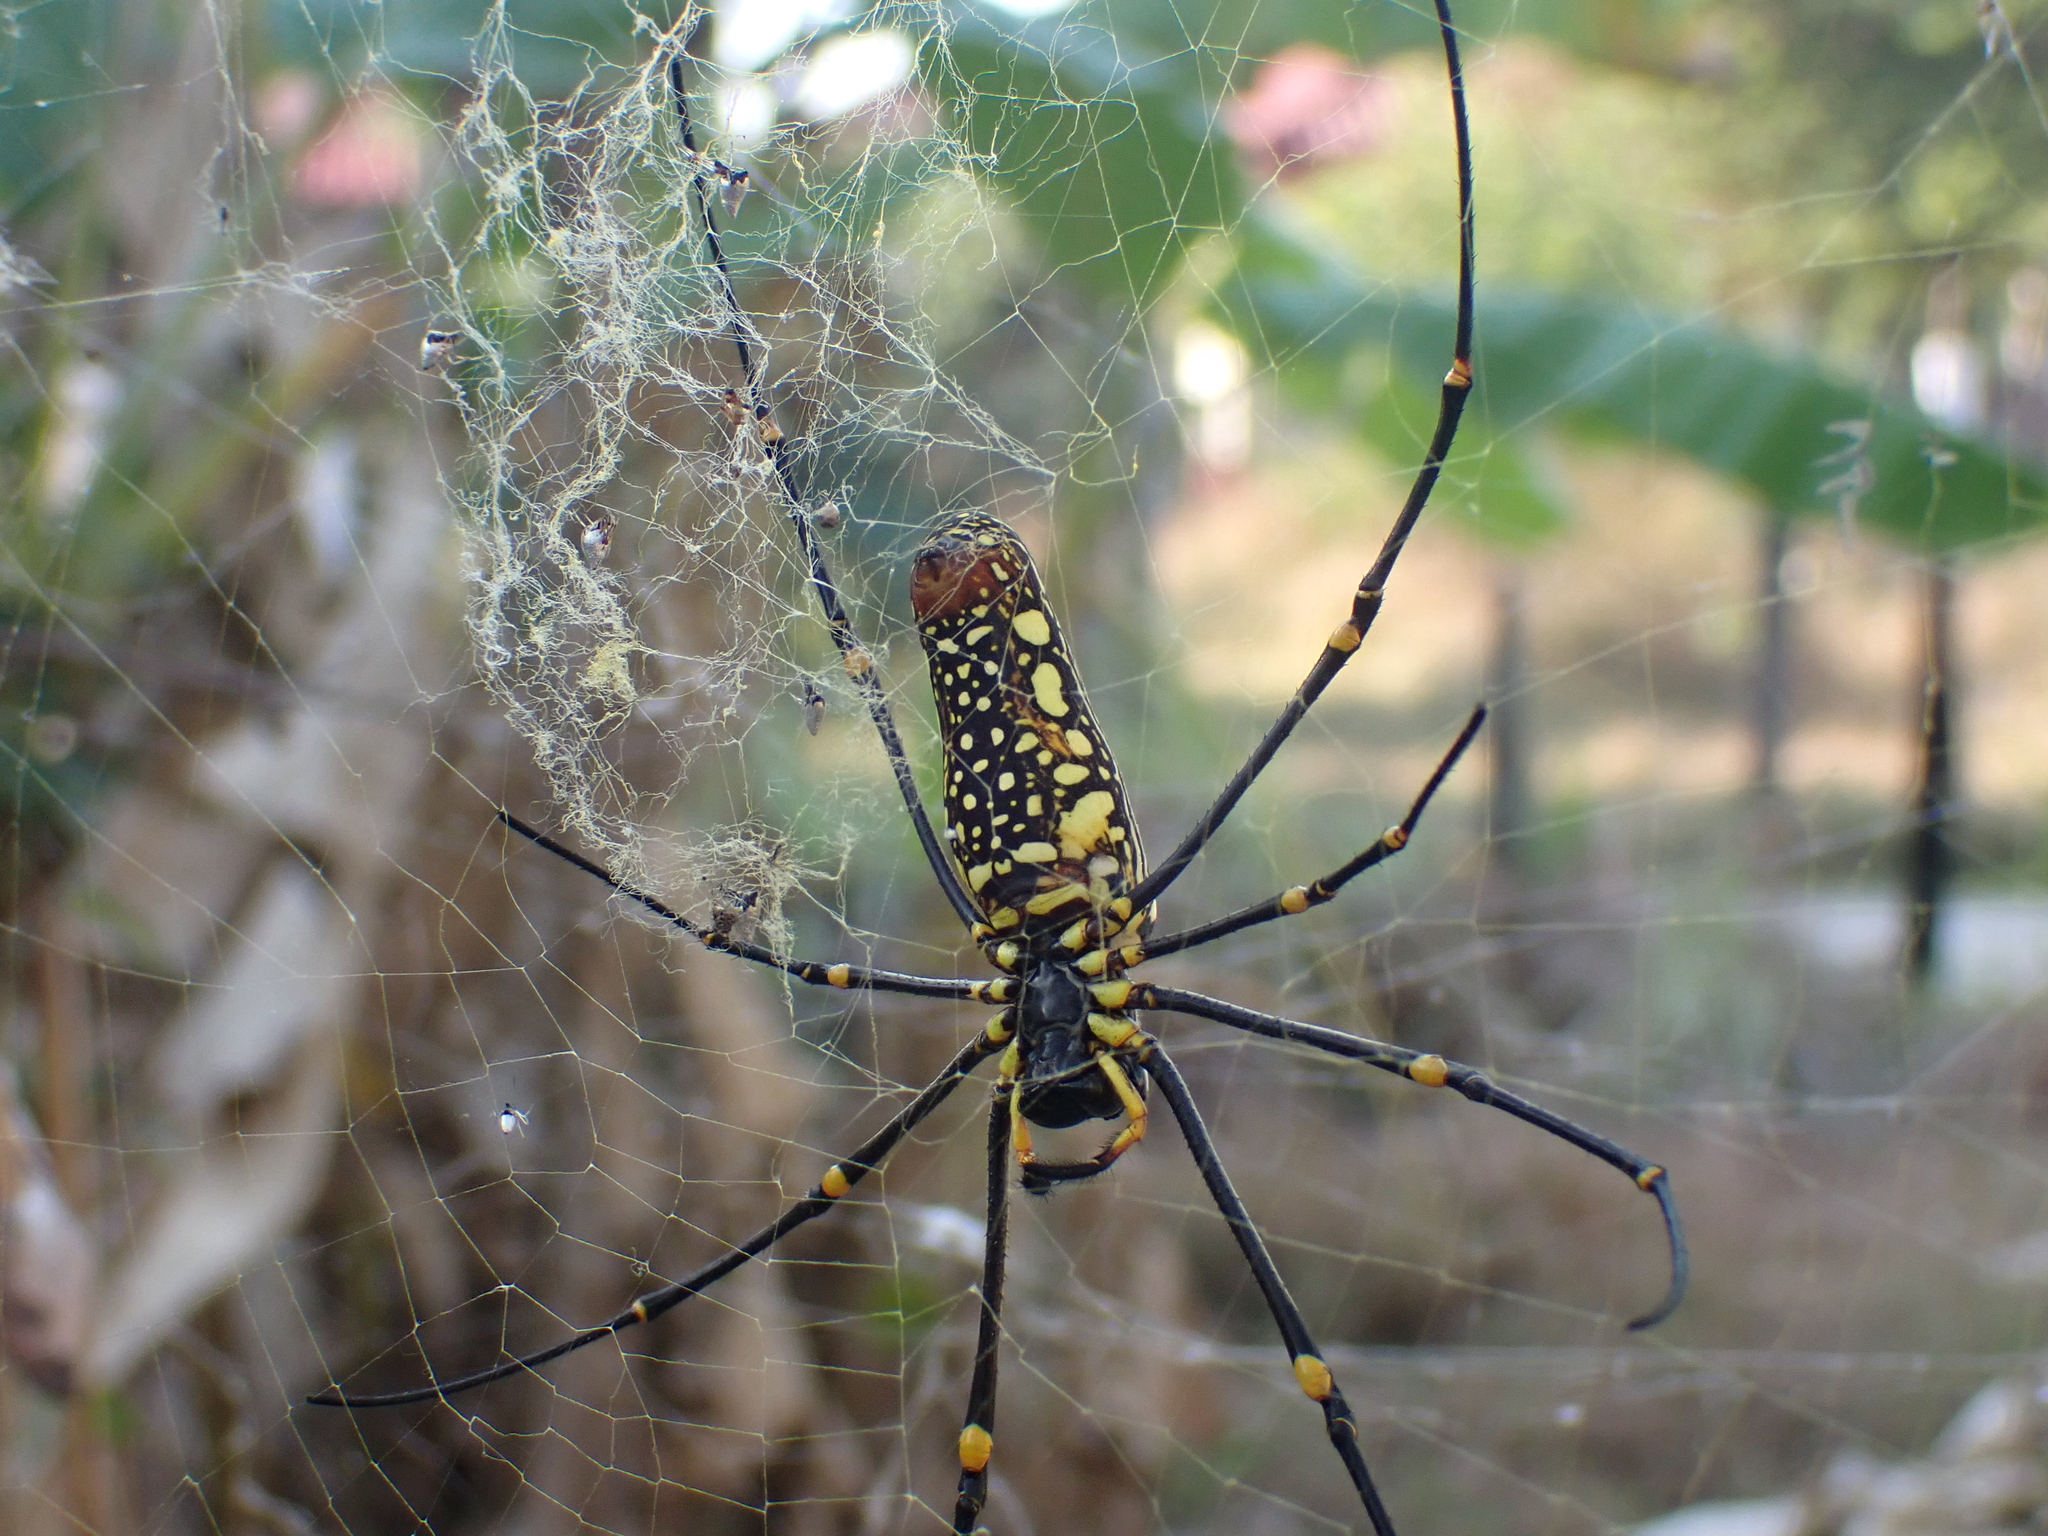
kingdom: Animalia
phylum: Arthropoda
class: Arachnida
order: Araneae
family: Araneidae
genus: Nephila
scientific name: Nephila pilipes
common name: Giant golden orb weaver
